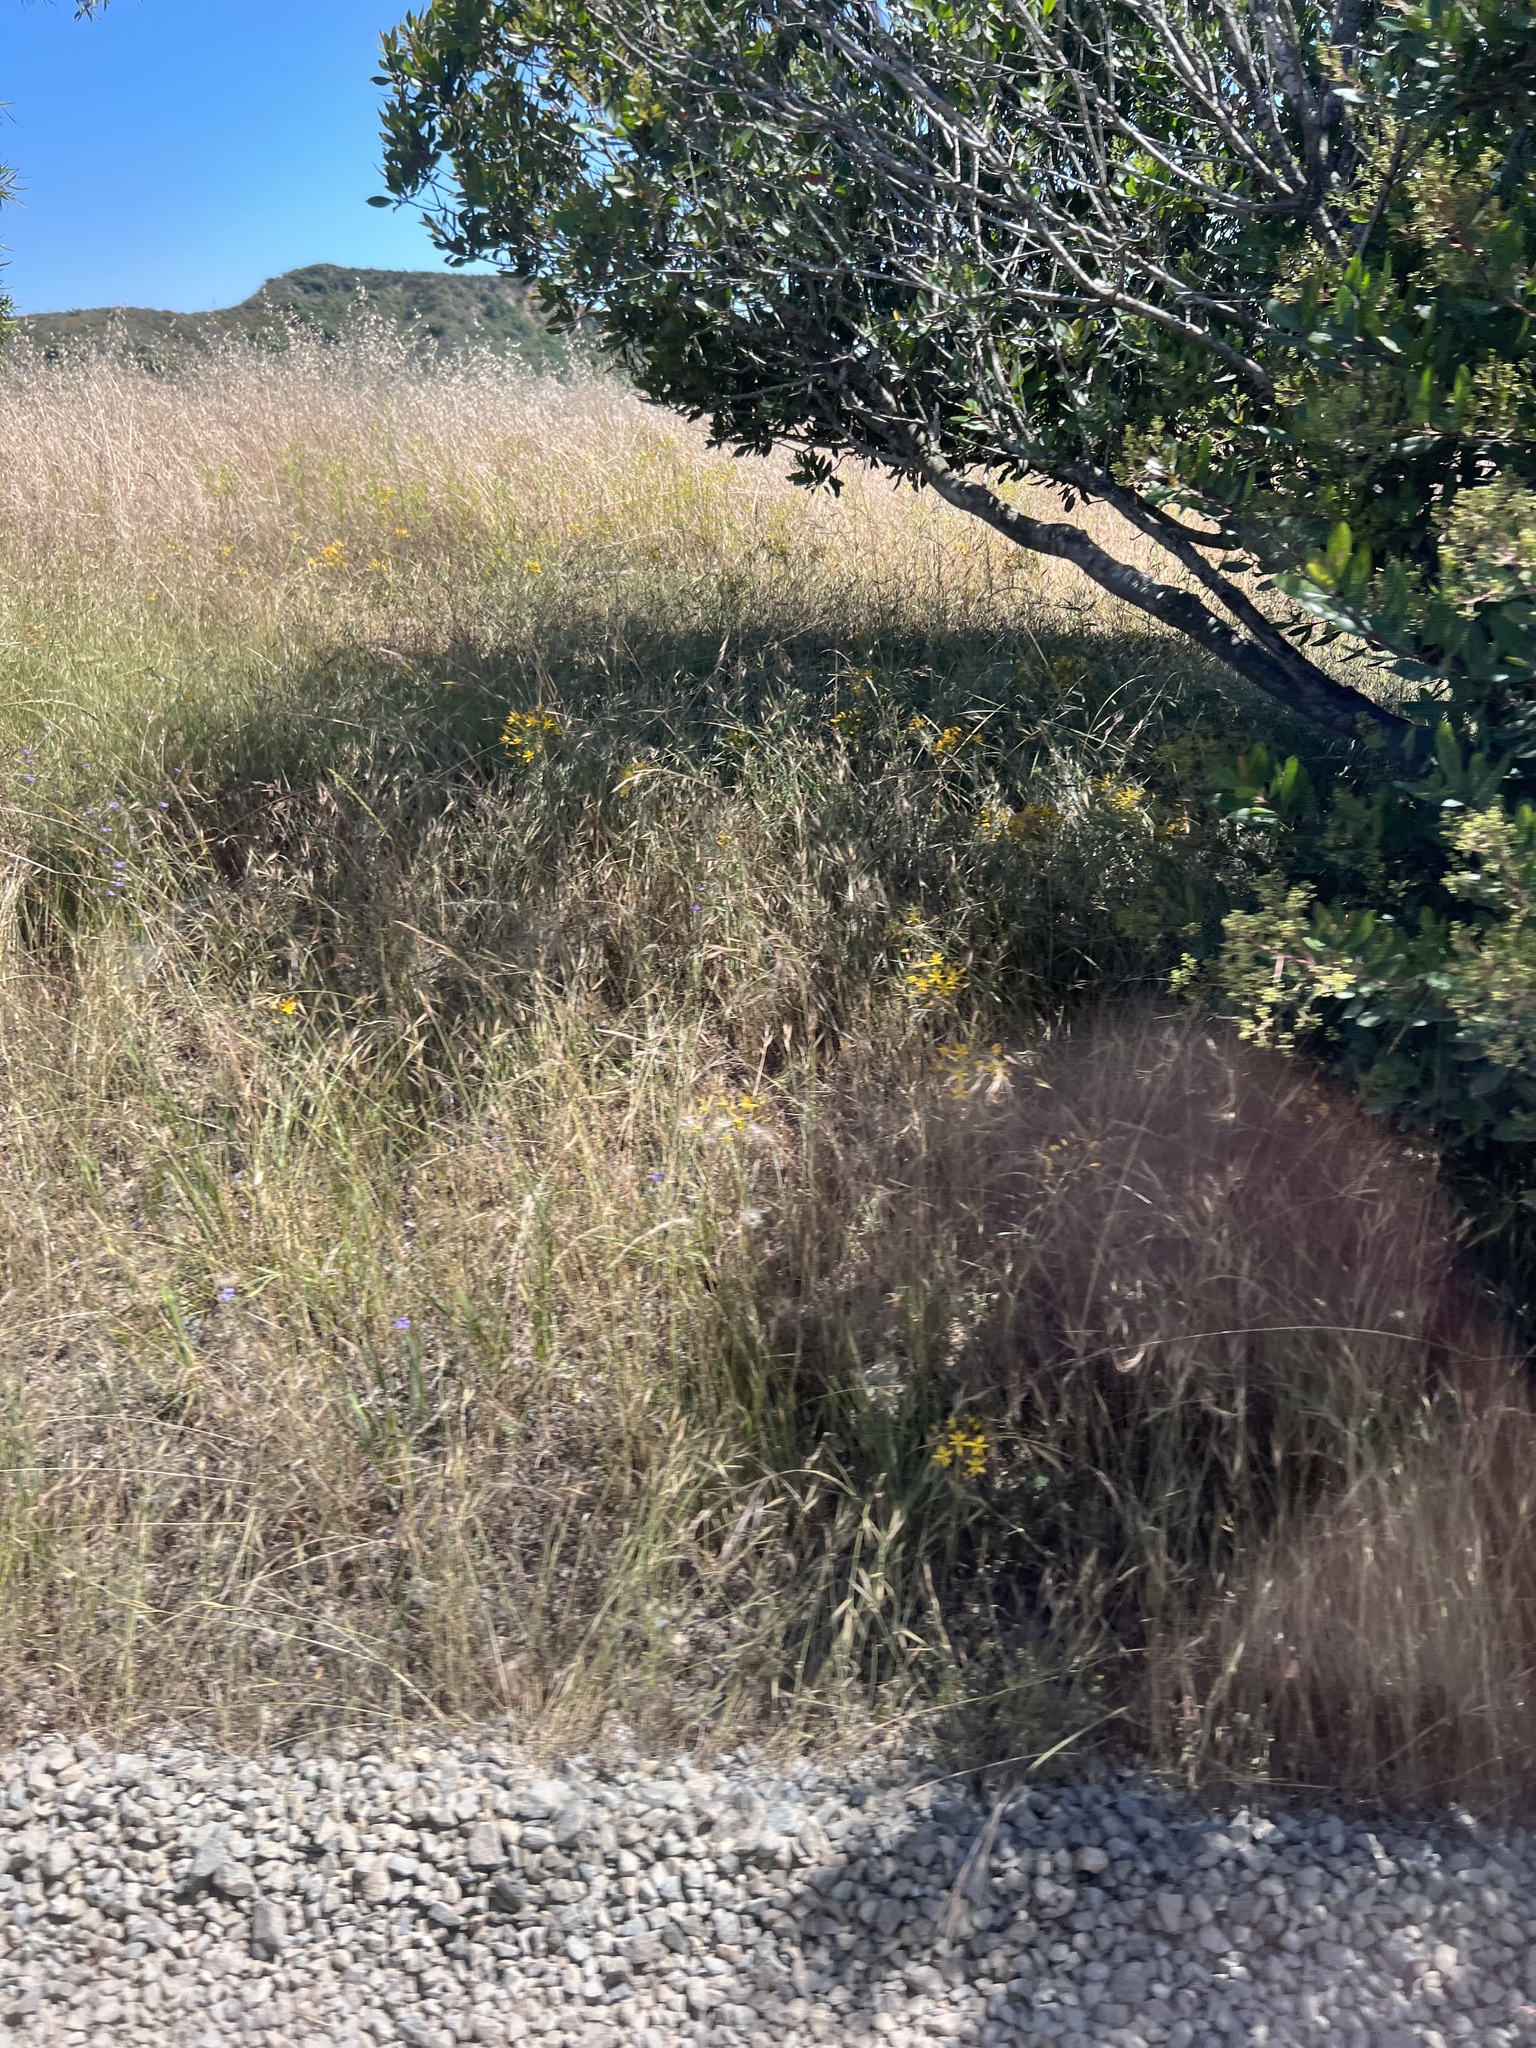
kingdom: Plantae
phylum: Tracheophyta
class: Liliopsida
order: Asparagales
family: Asparagaceae
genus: Bloomeria
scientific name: Bloomeria crocea
